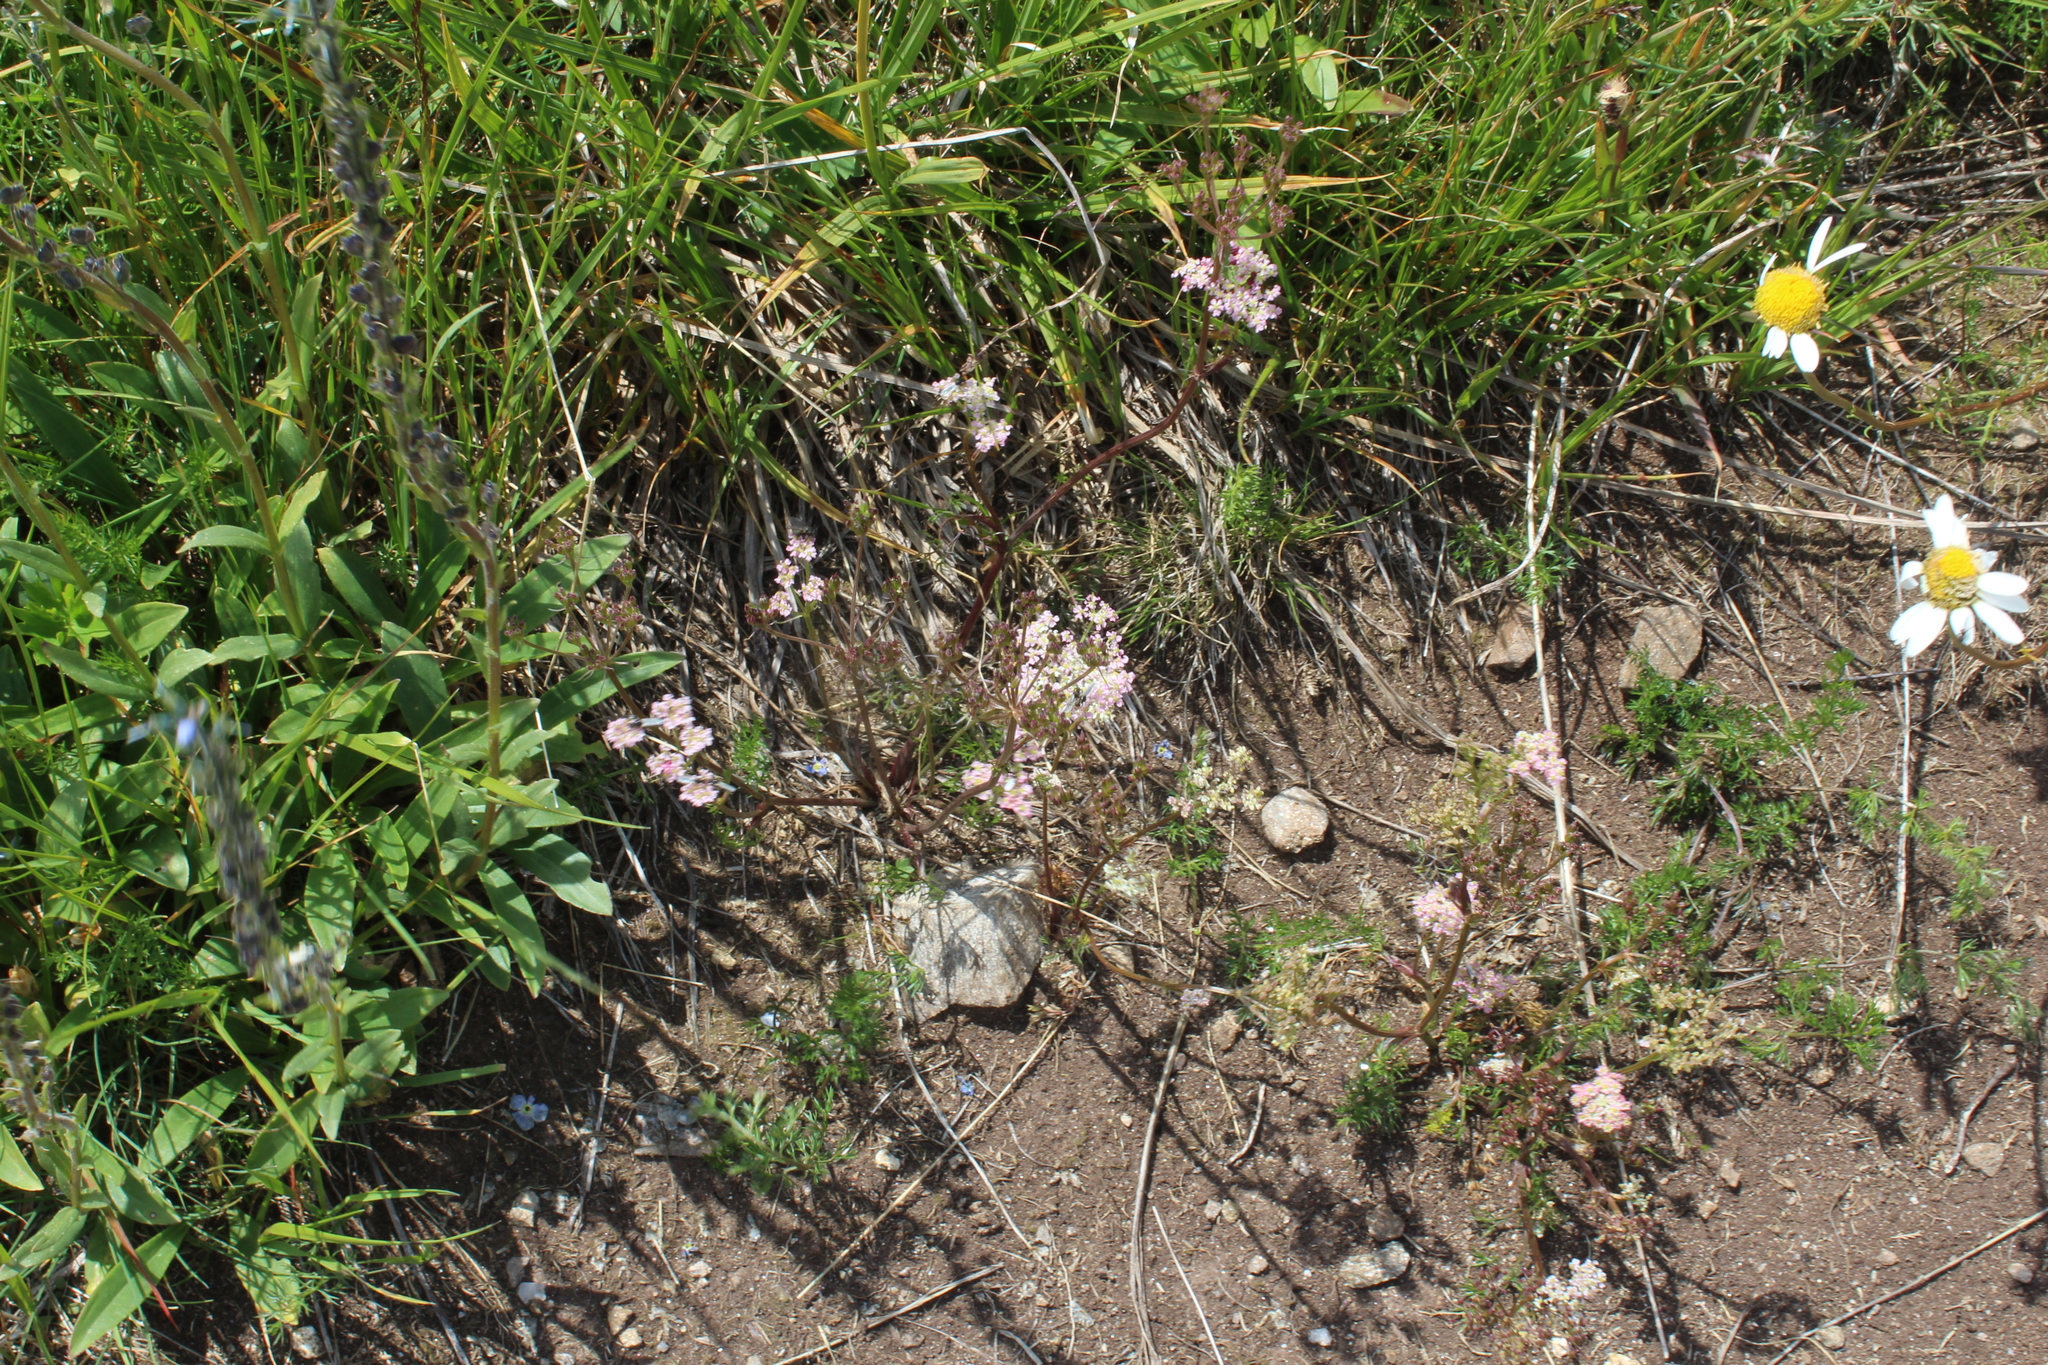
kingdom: Plantae
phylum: Tracheophyta
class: Magnoliopsida
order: Apiales
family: Apiaceae
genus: Carum
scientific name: Carum meifolium
